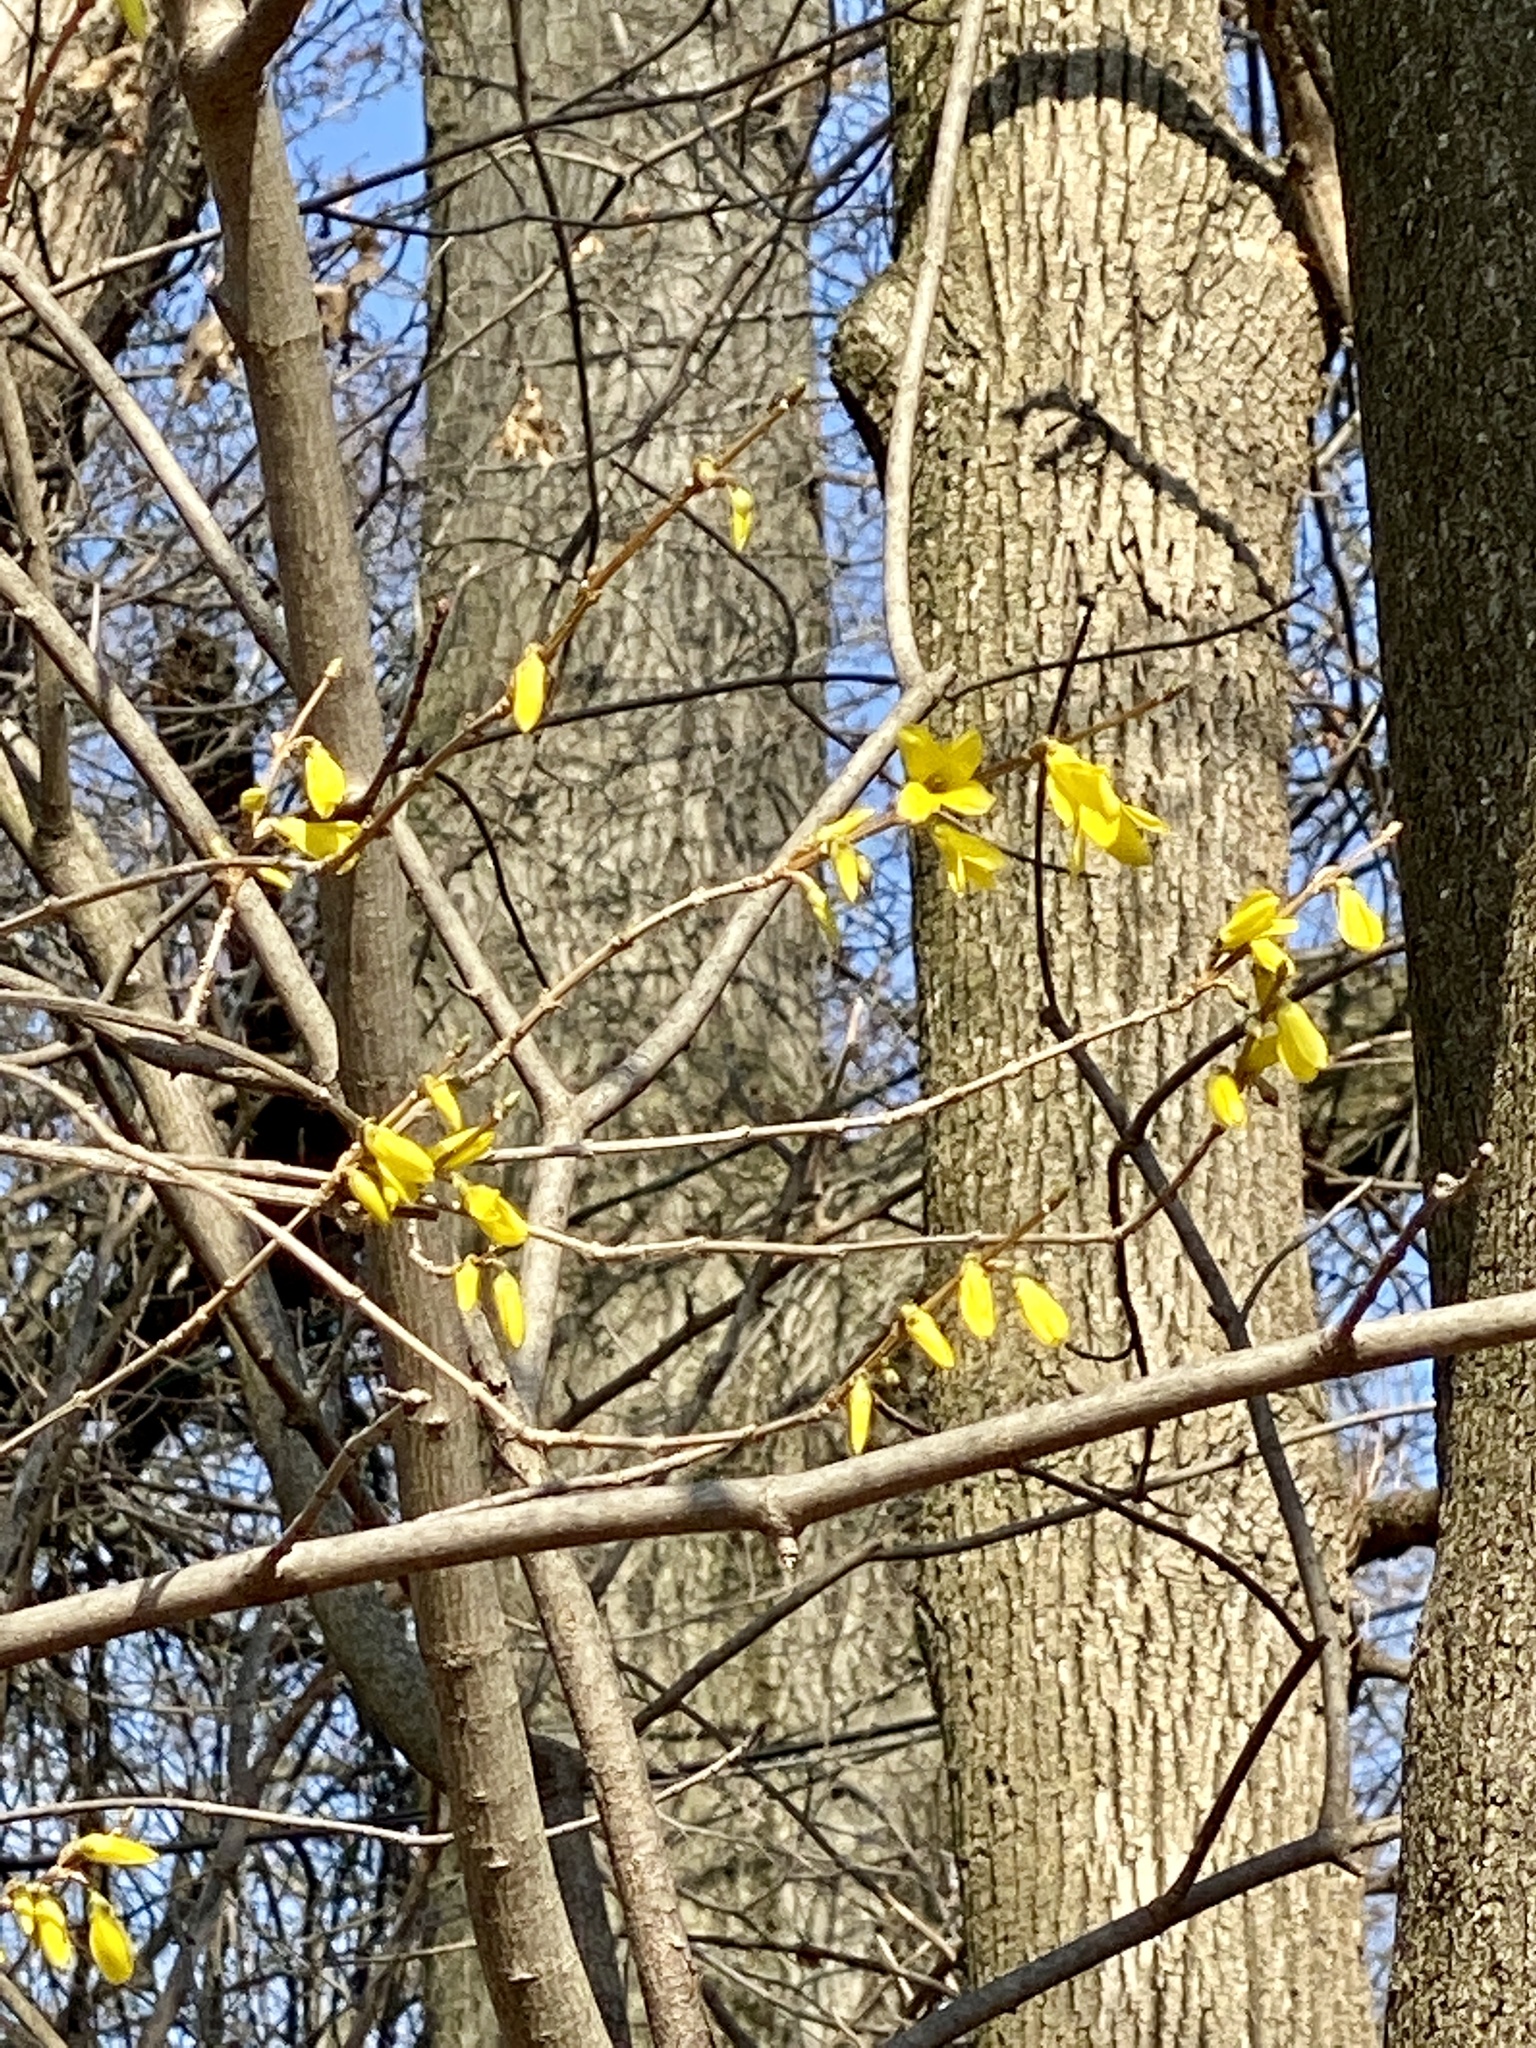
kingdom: Plantae
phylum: Tracheophyta
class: Magnoliopsida
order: Lamiales
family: Oleaceae
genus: Forsythia
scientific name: Forsythia
